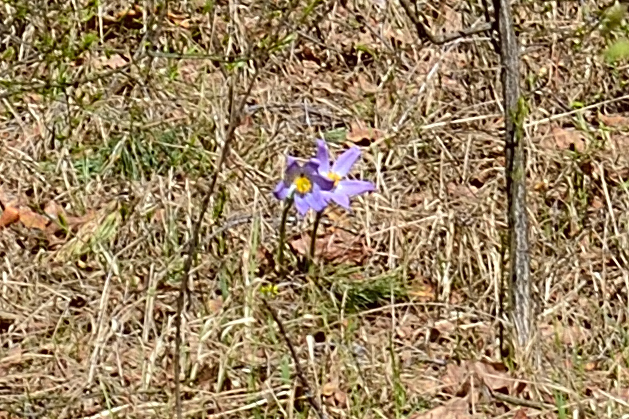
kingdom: Plantae
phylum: Tracheophyta
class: Magnoliopsida
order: Ranunculales
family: Ranunculaceae
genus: Pulsatilla
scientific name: Pulsatilla patens
